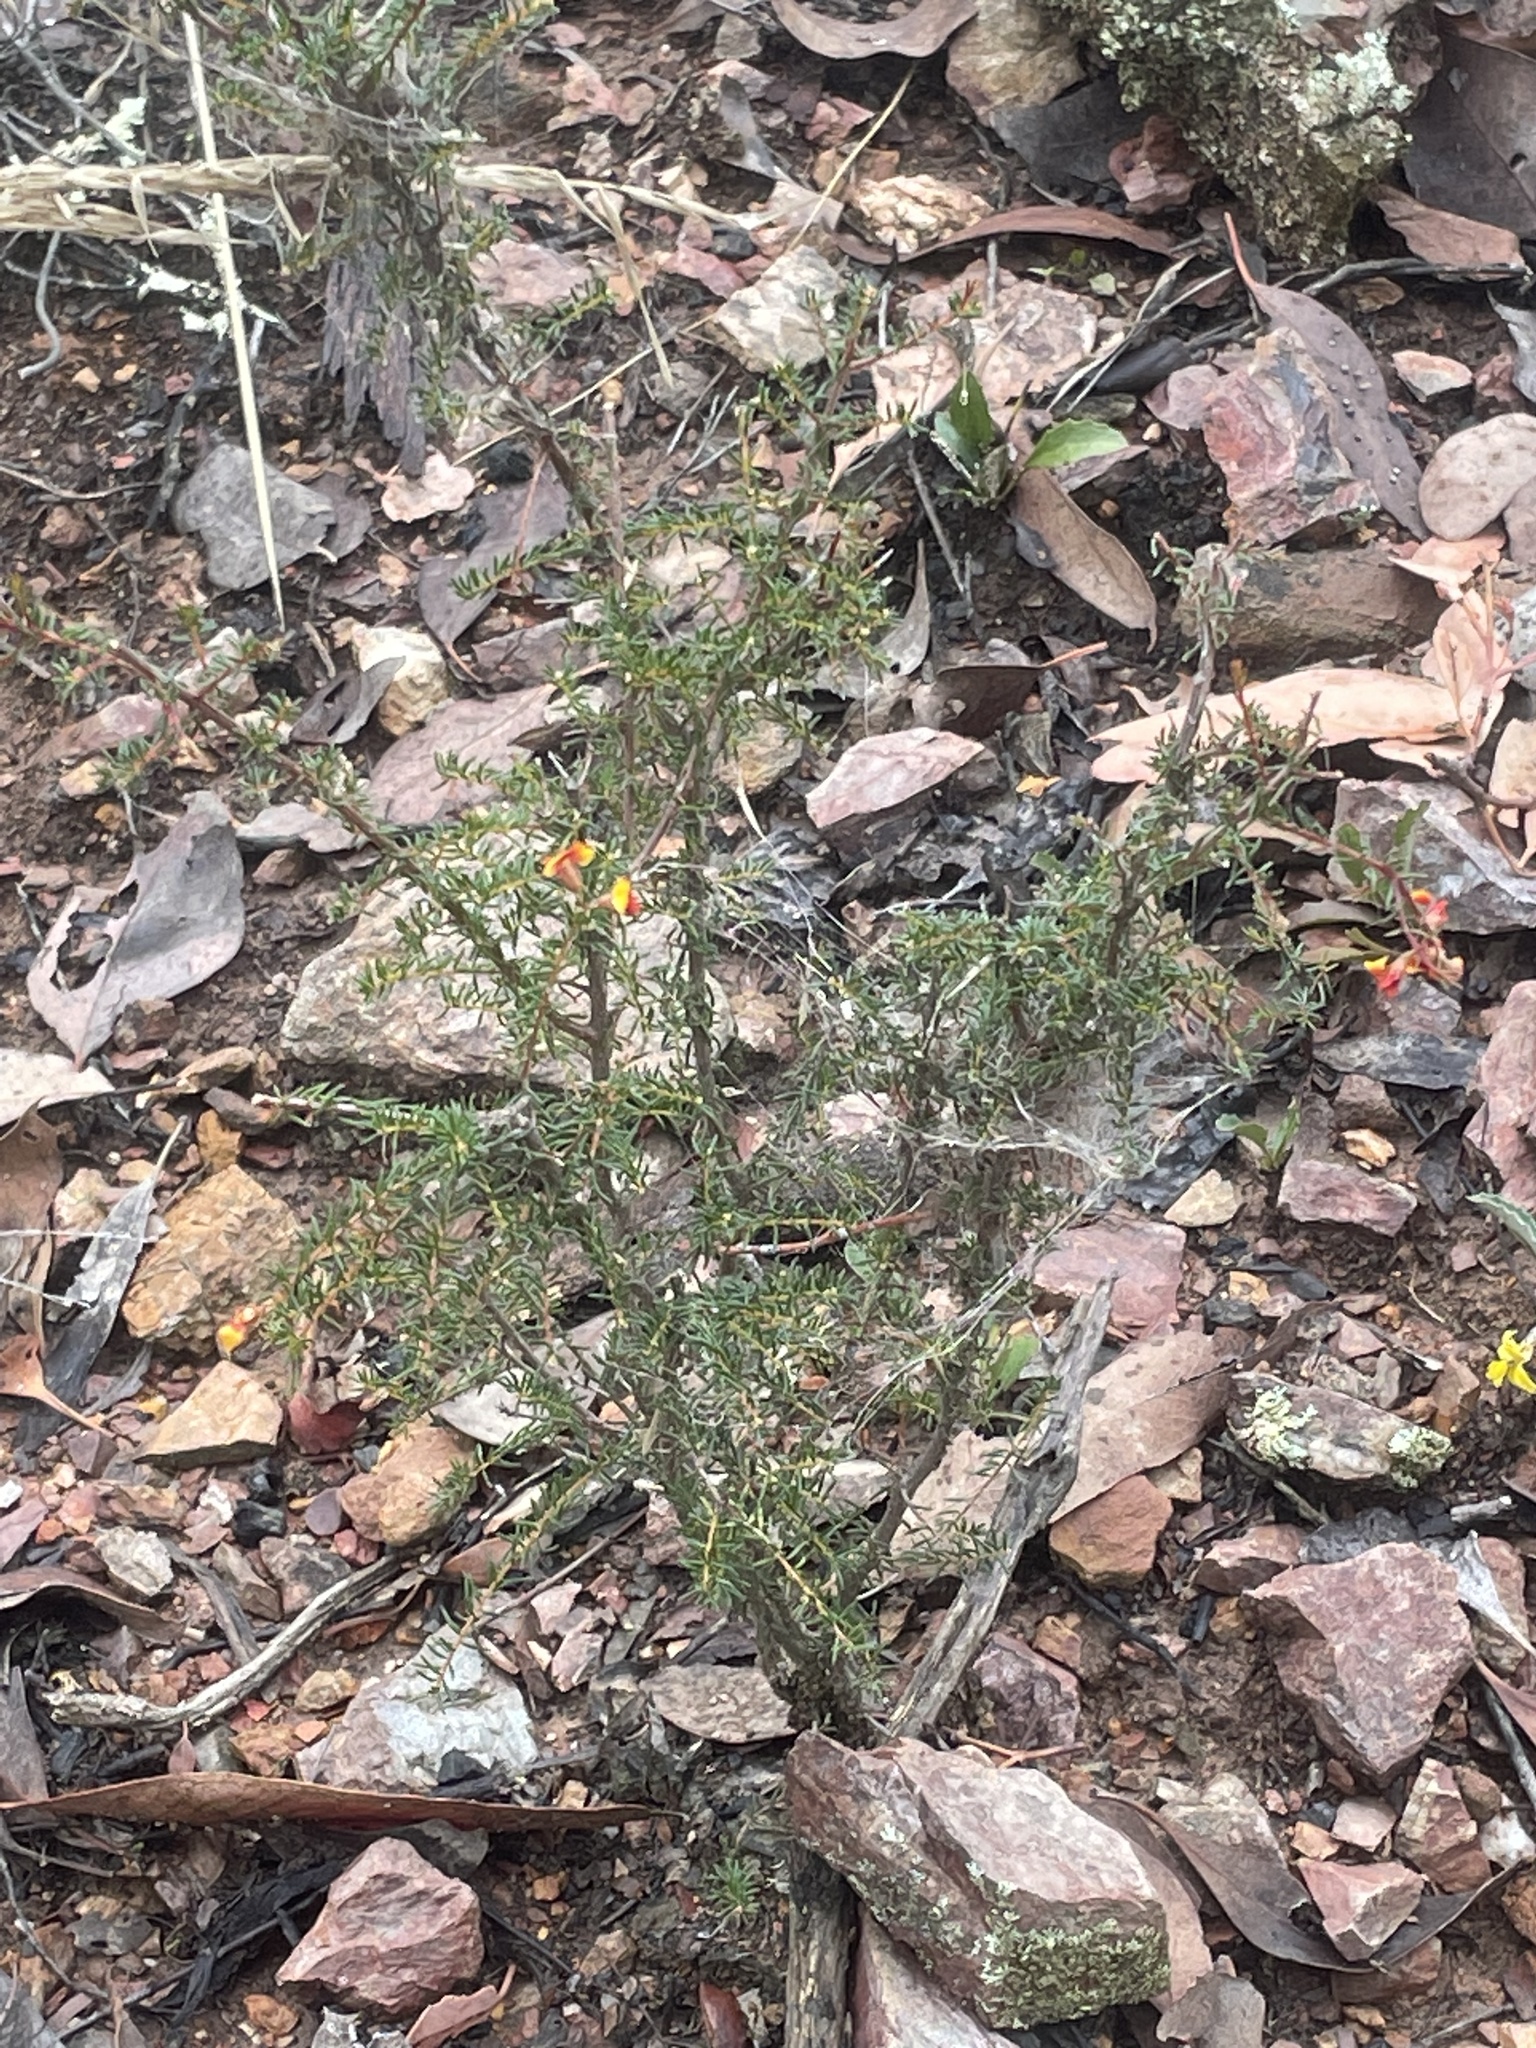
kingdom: Plantae
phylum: Tracheophyta
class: Magnoliopsida
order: Fabales
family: Fabaceae
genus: Dillwynia
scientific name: Dillwynia phylicoides
